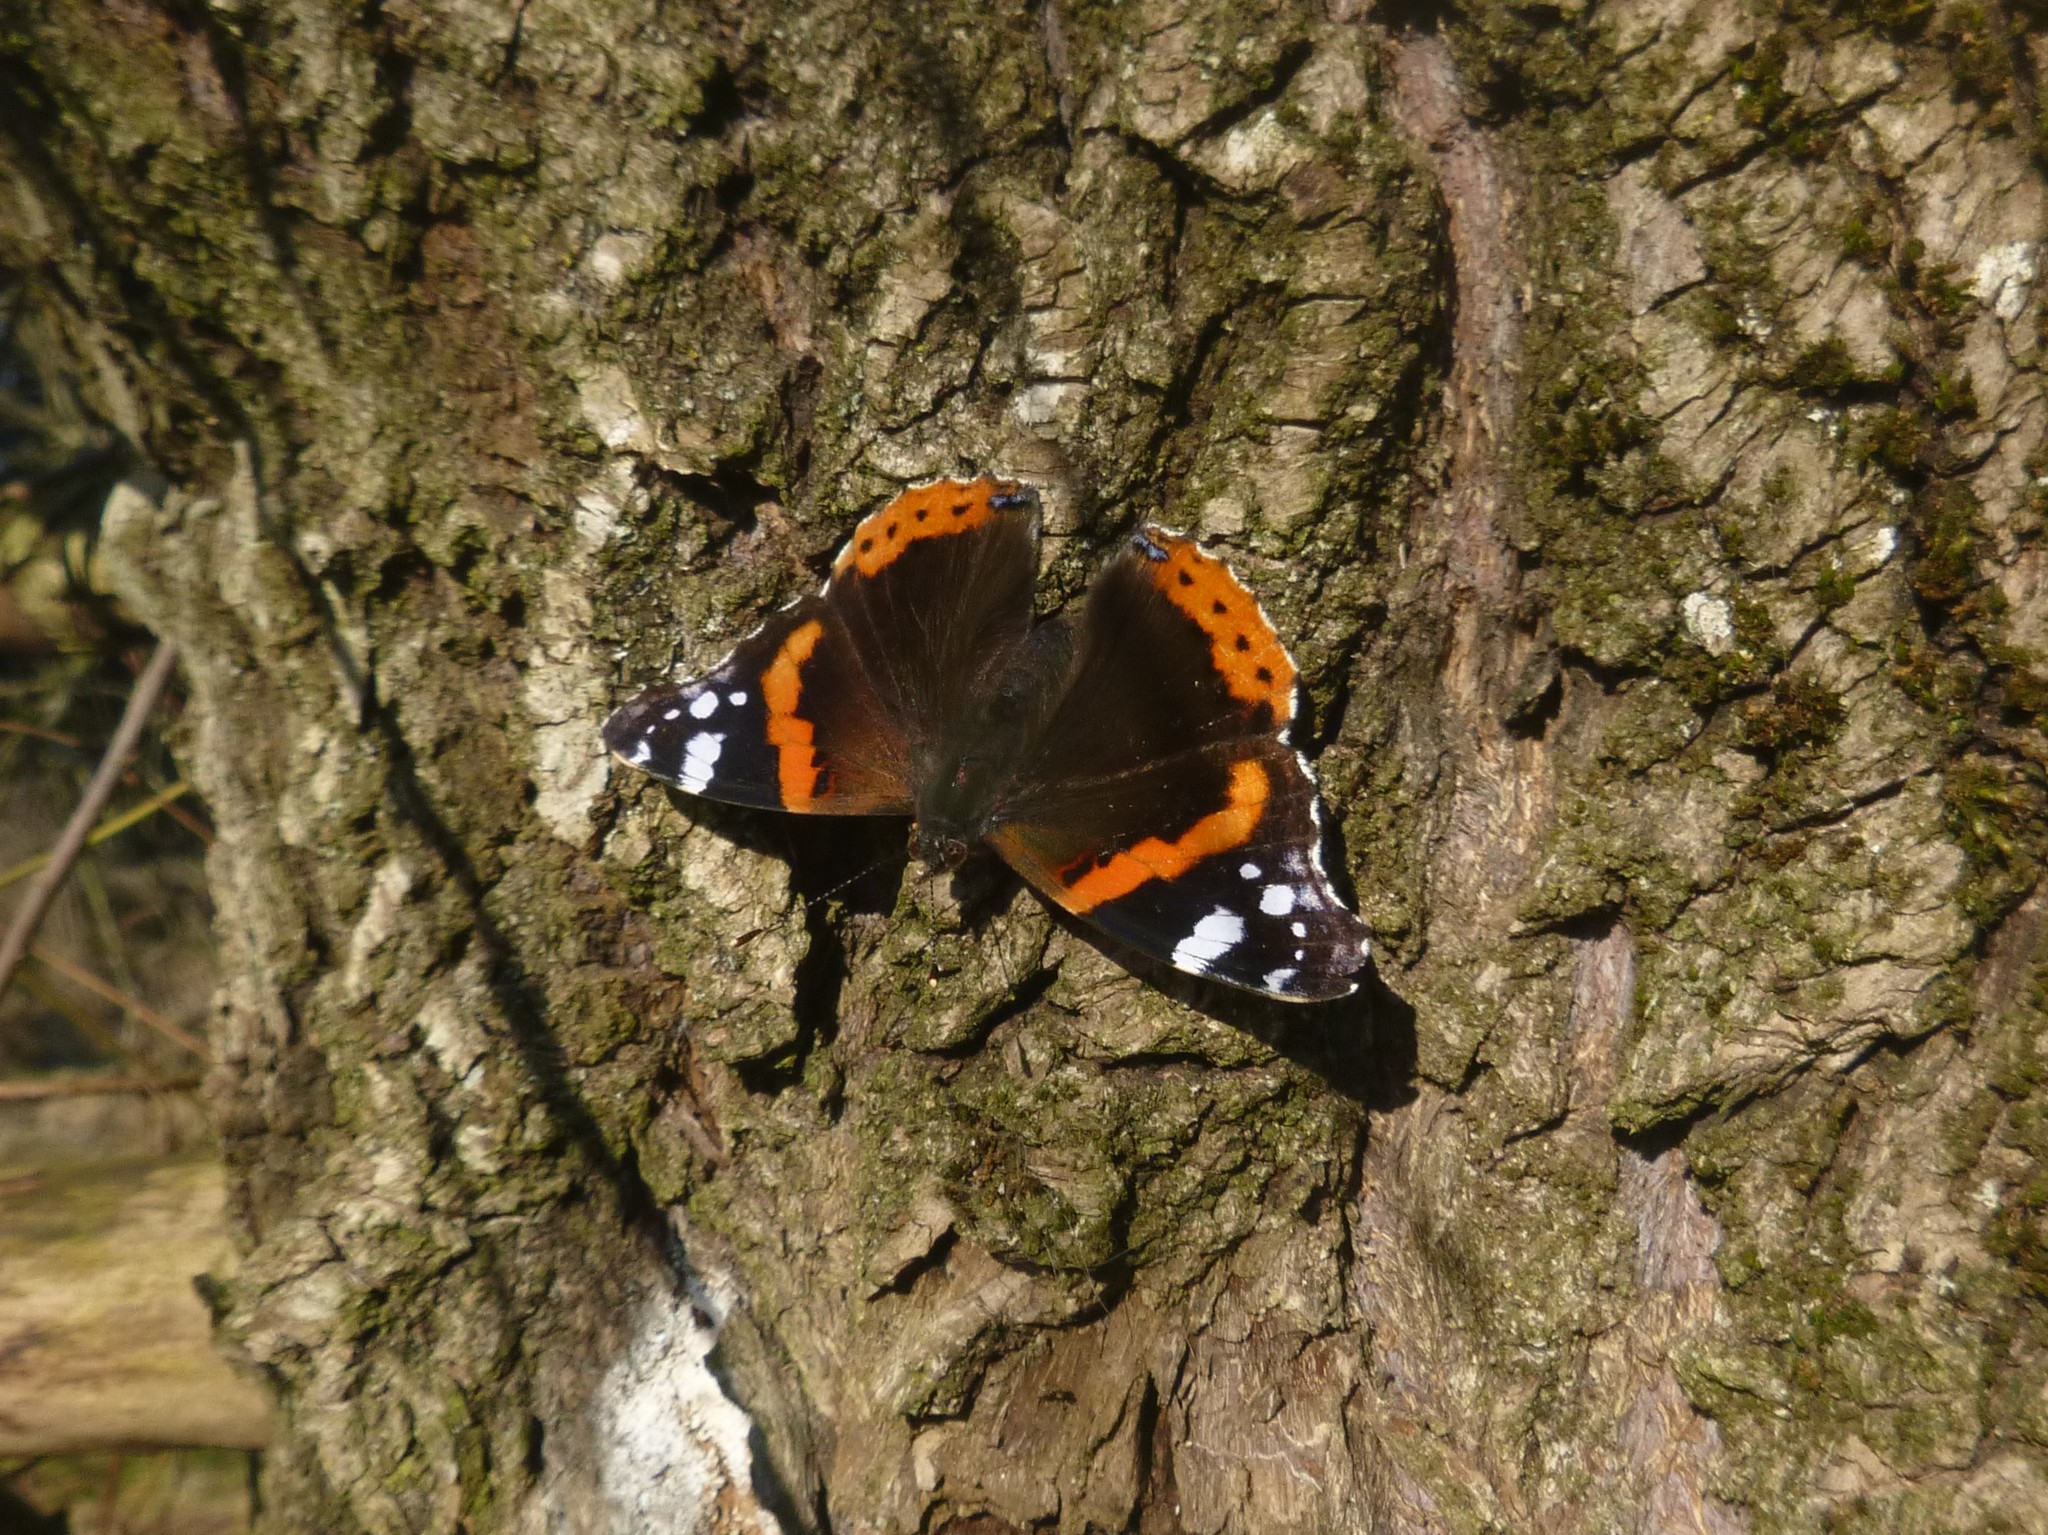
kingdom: Animalia
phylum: Arthropoda
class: Insecta
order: Lepidoptera
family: Nymphalidae
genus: Vanessa
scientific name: Vanessa atalanta
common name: Red admiral
